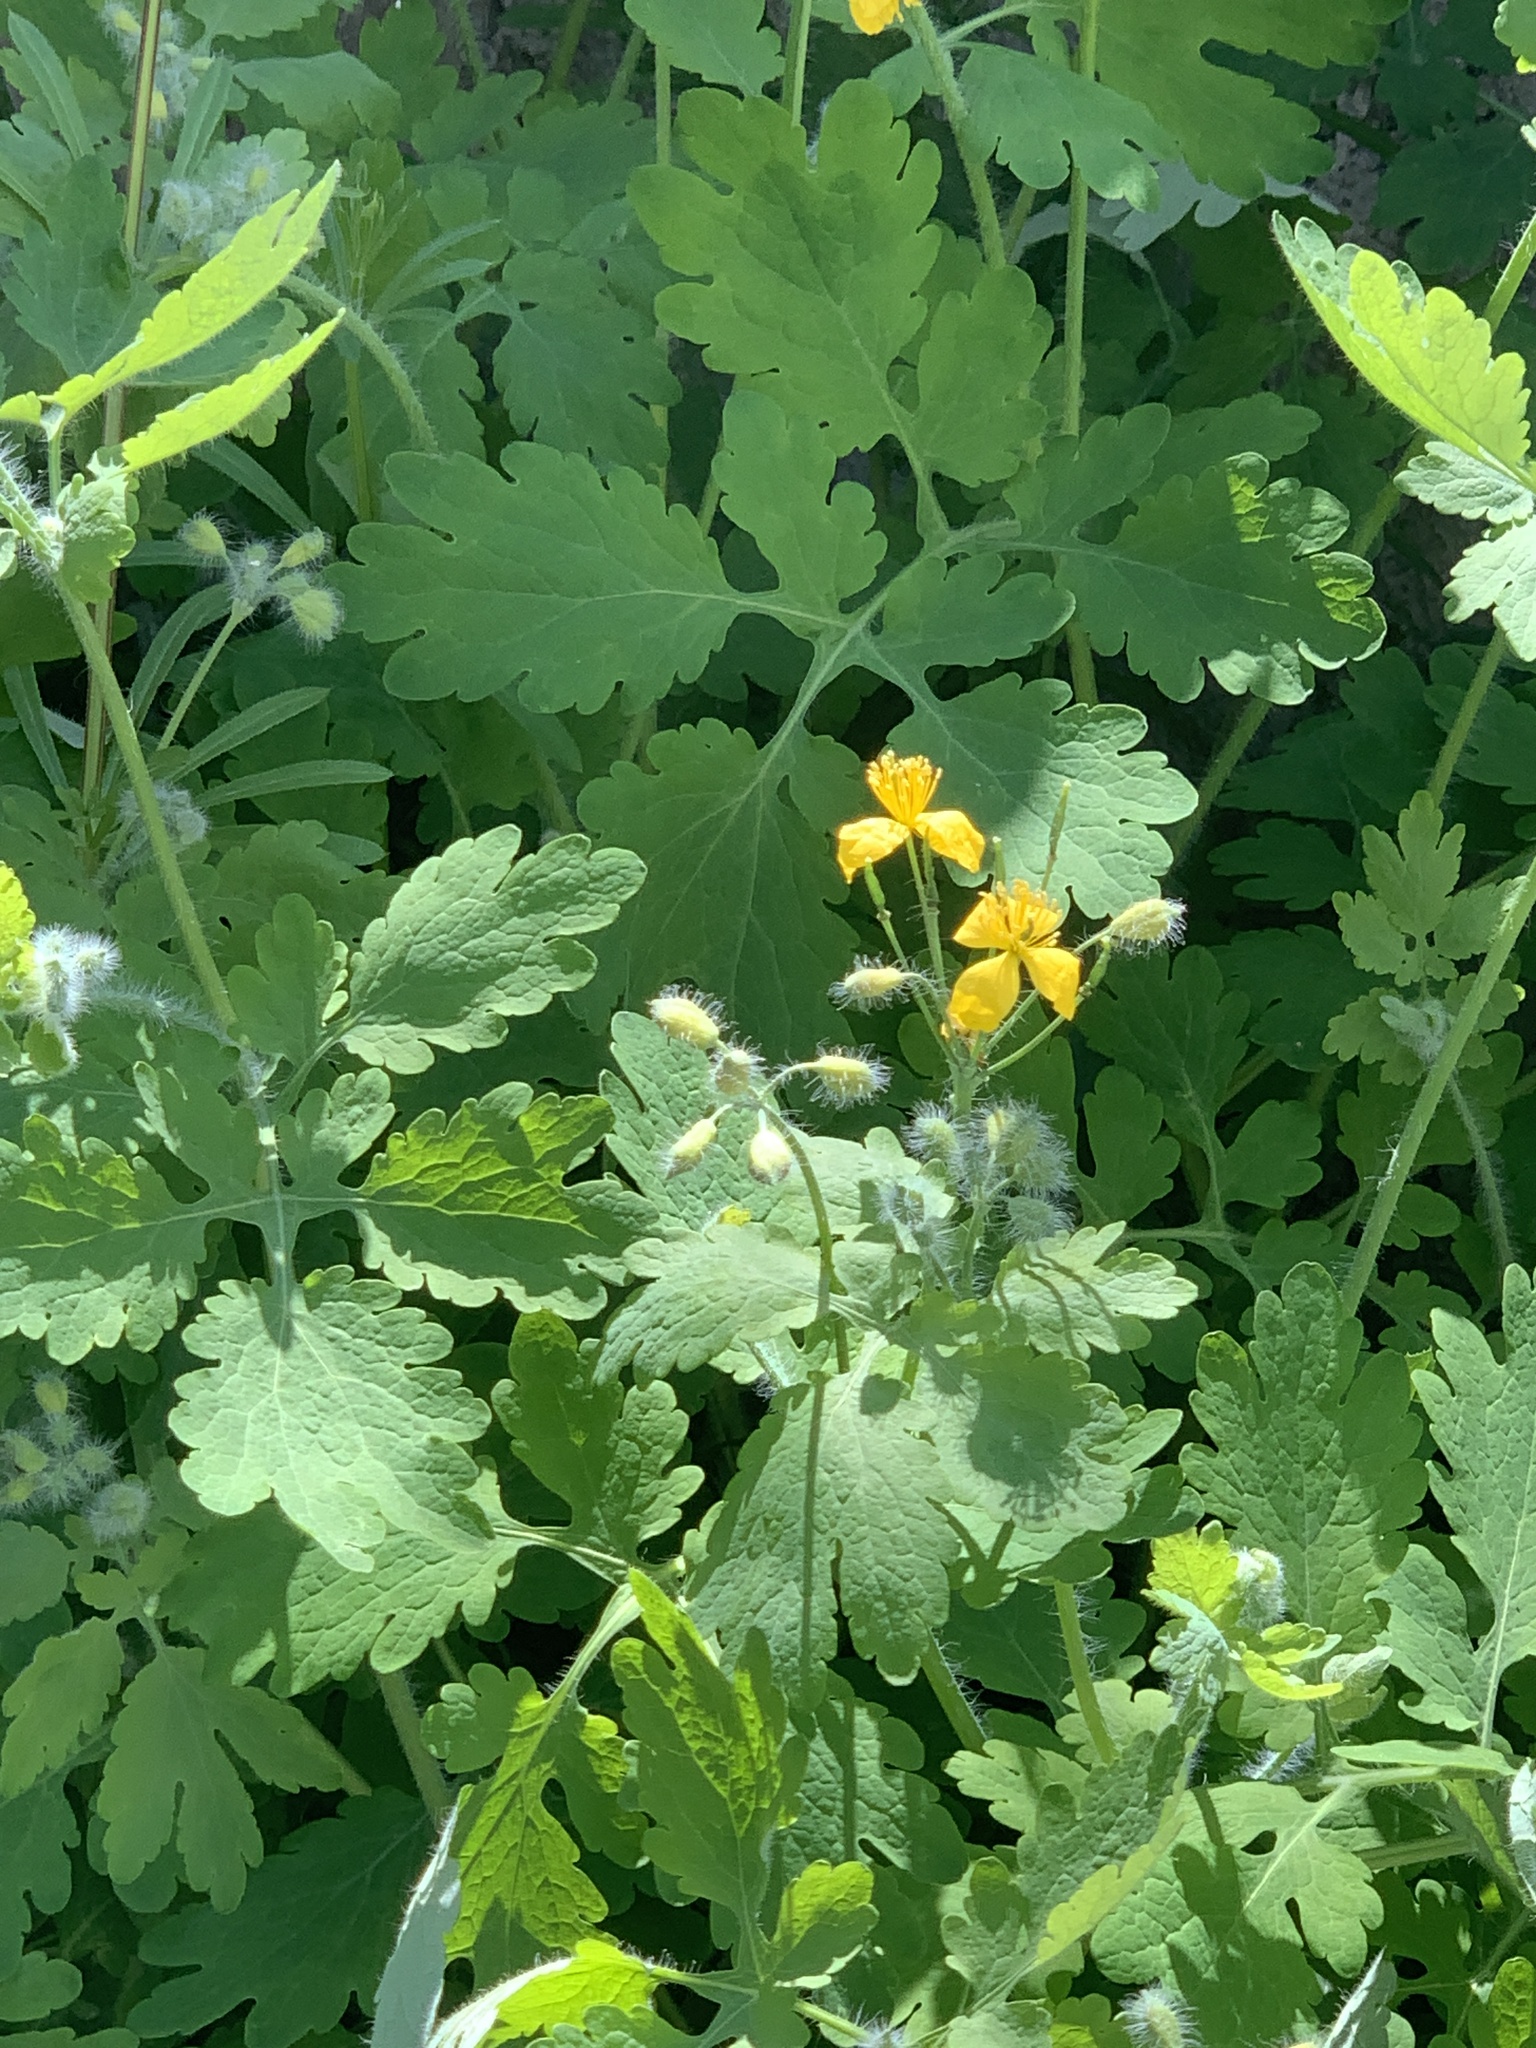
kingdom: Plantae
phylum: Tracheophyta
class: Magnoliopsida
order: Ranunculales
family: Papaveraceae
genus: Chelidonium
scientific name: Chelidonium majus
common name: Greater celandine
